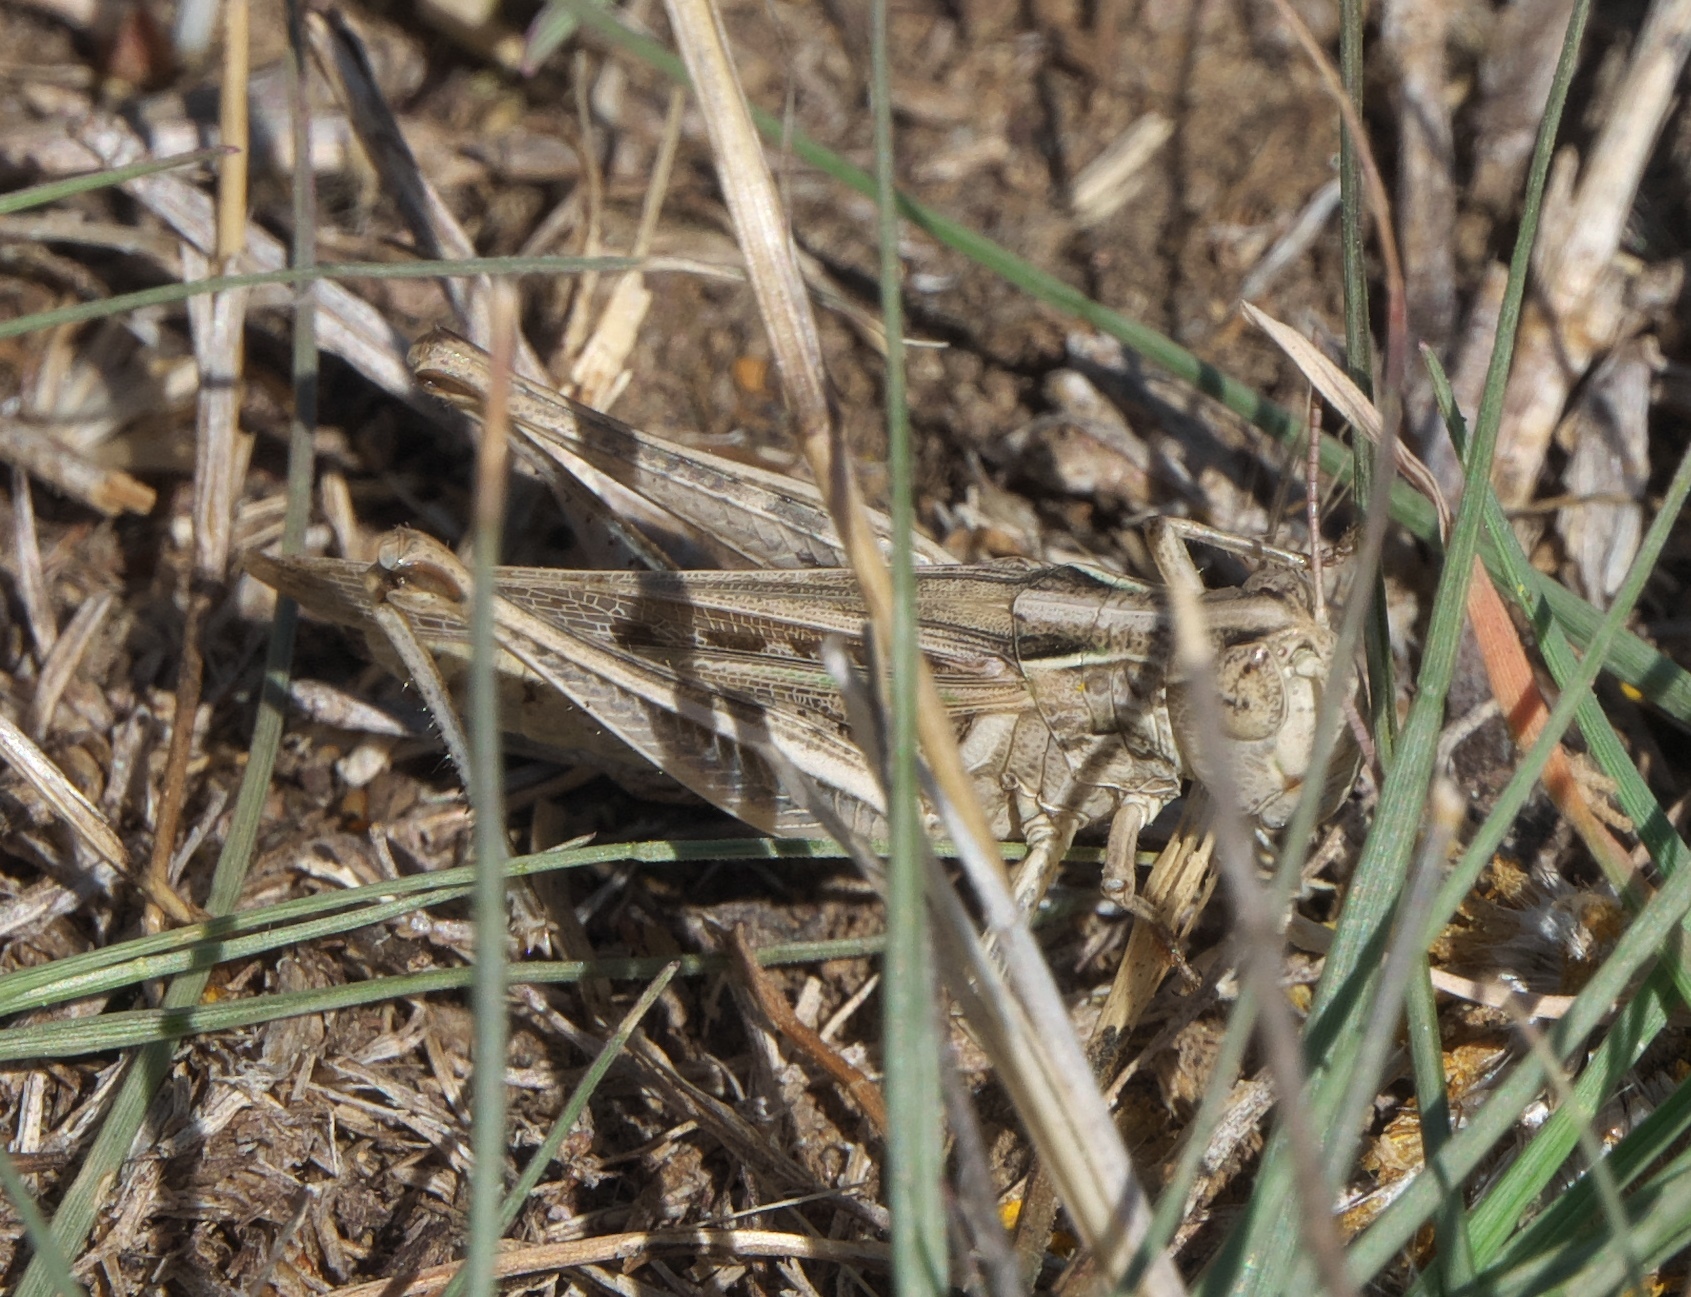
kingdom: Animalia
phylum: Arthropoda
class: Insecta
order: Orthoptera
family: Acrididae
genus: Orphulella
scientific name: Orphulella speciosa
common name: Pasture grasshopper
